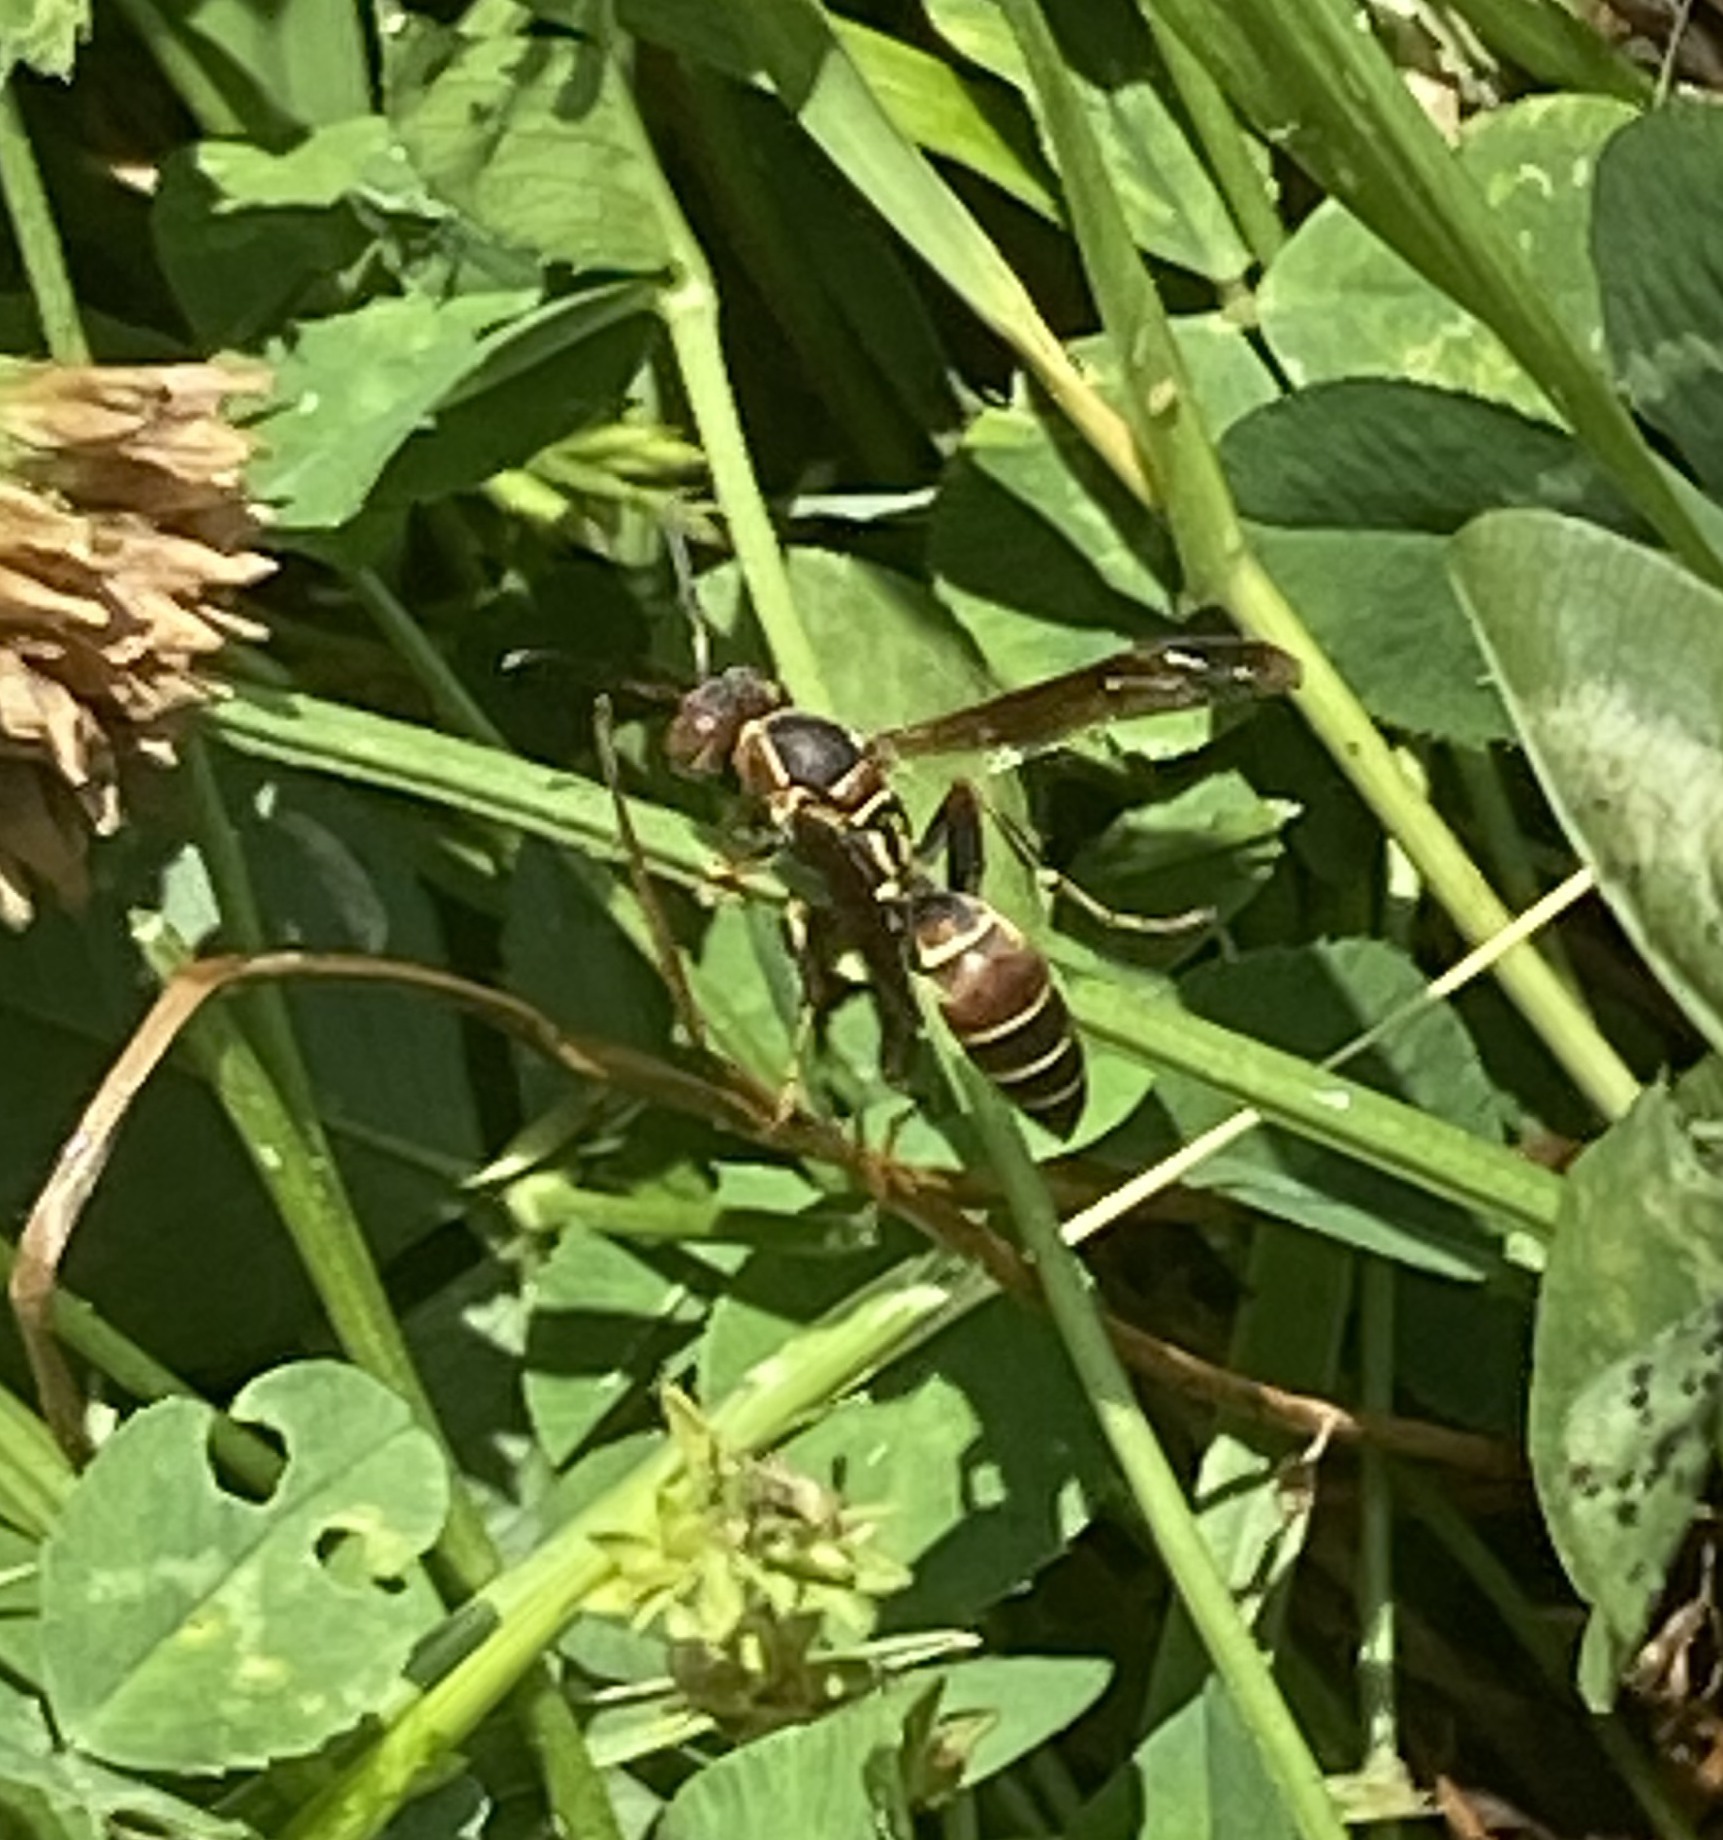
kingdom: Animalia
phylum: Arthropoda
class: Insecta
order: Hymenoptera
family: Eumenidae
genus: Polistes
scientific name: Polistes dorsalis
